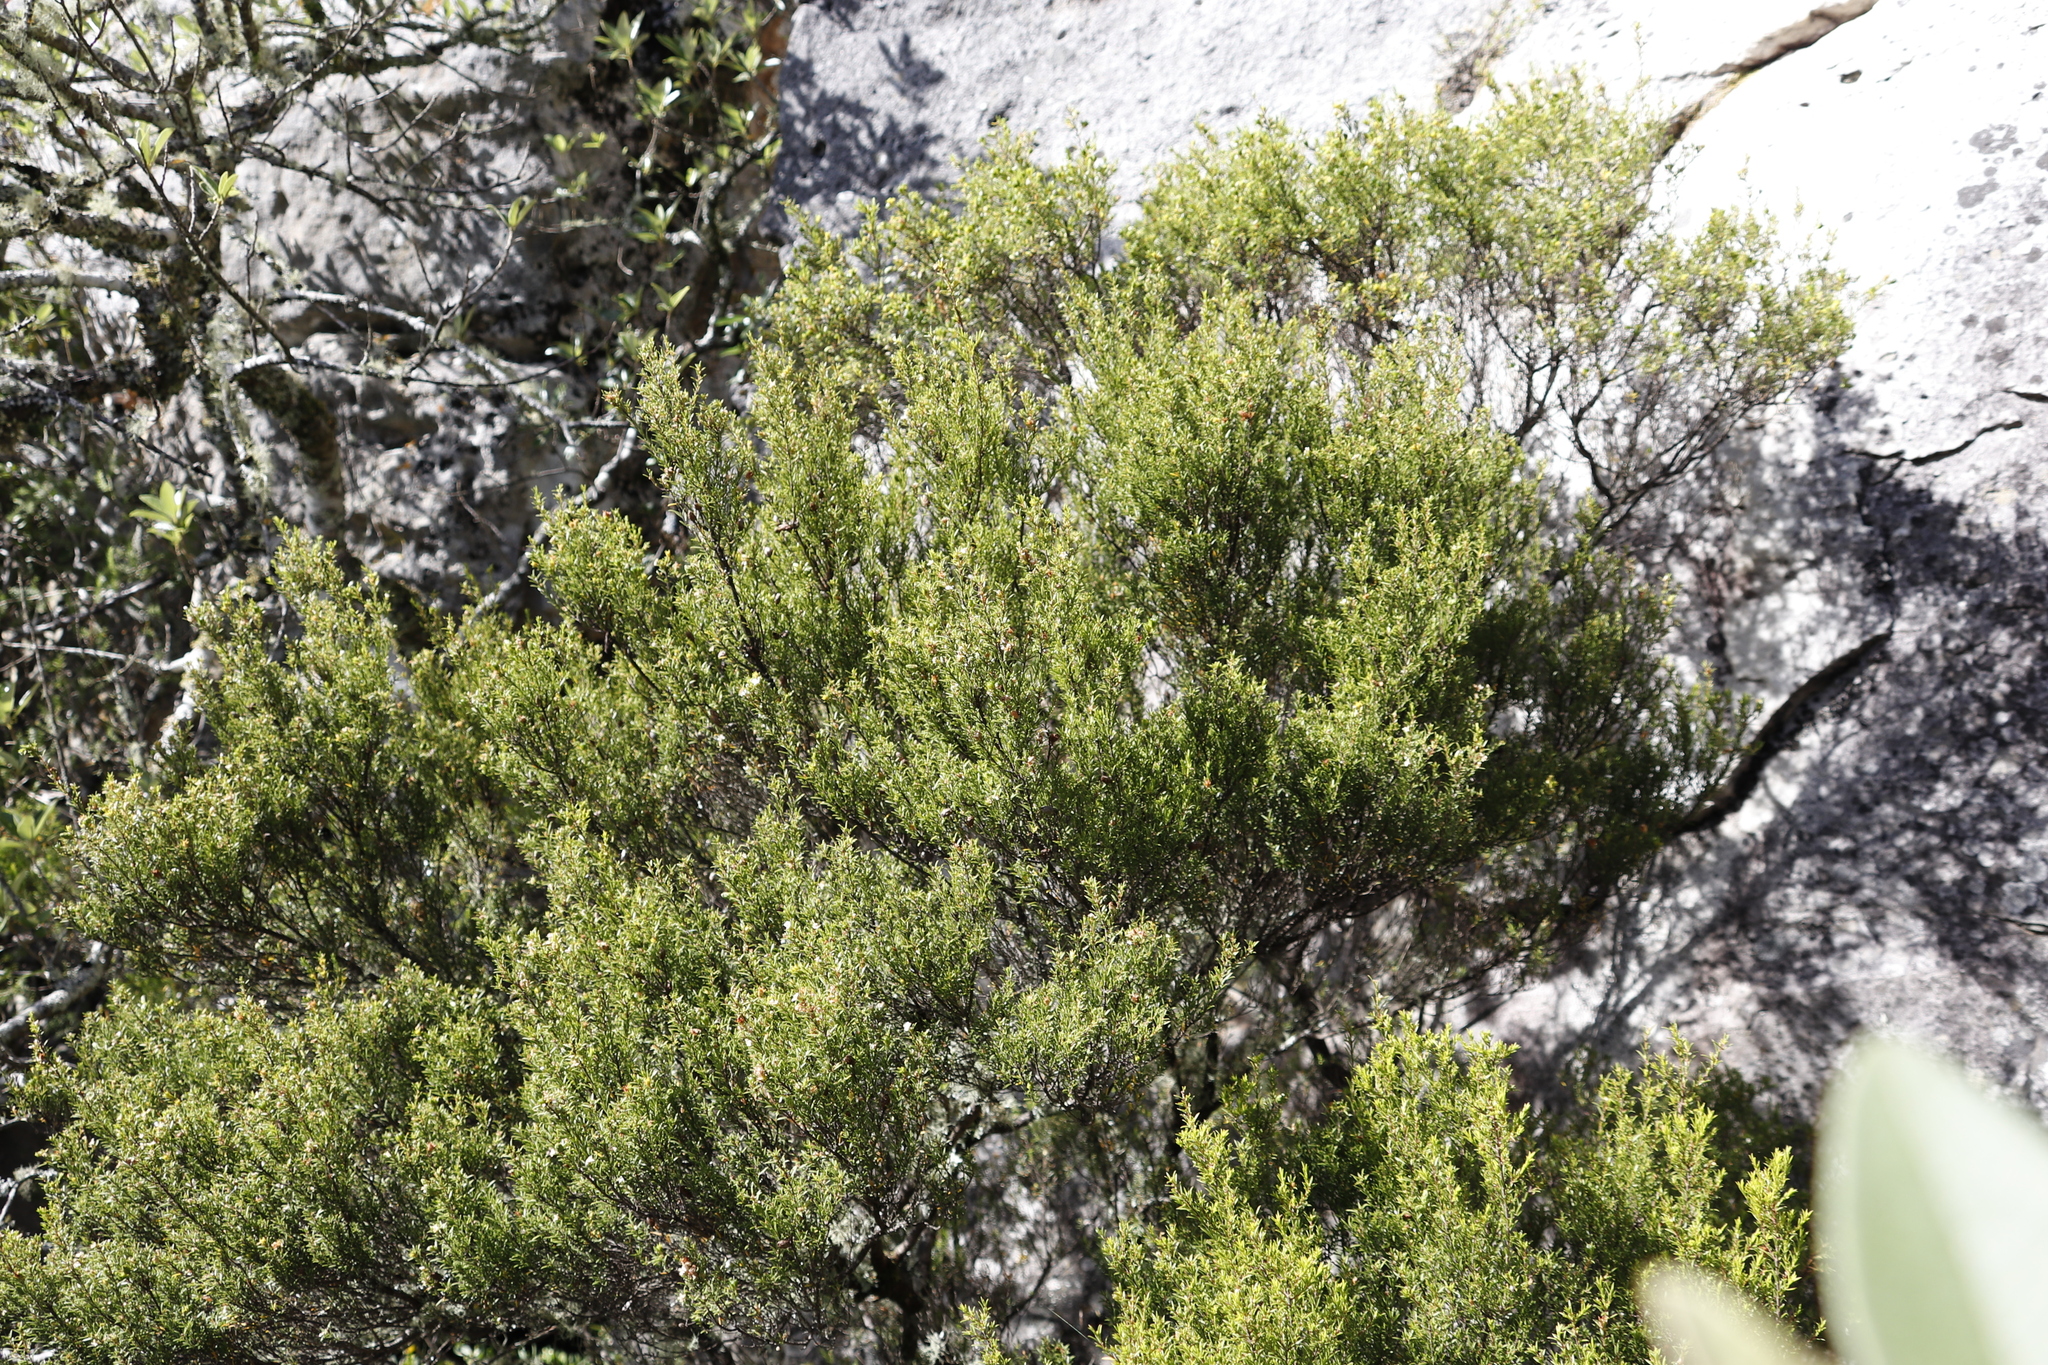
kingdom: Plantae
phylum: Tracheophyta
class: Magnoliopsida
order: Sapindales
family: Rutaceae
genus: Coleonema
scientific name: Coleonema album
